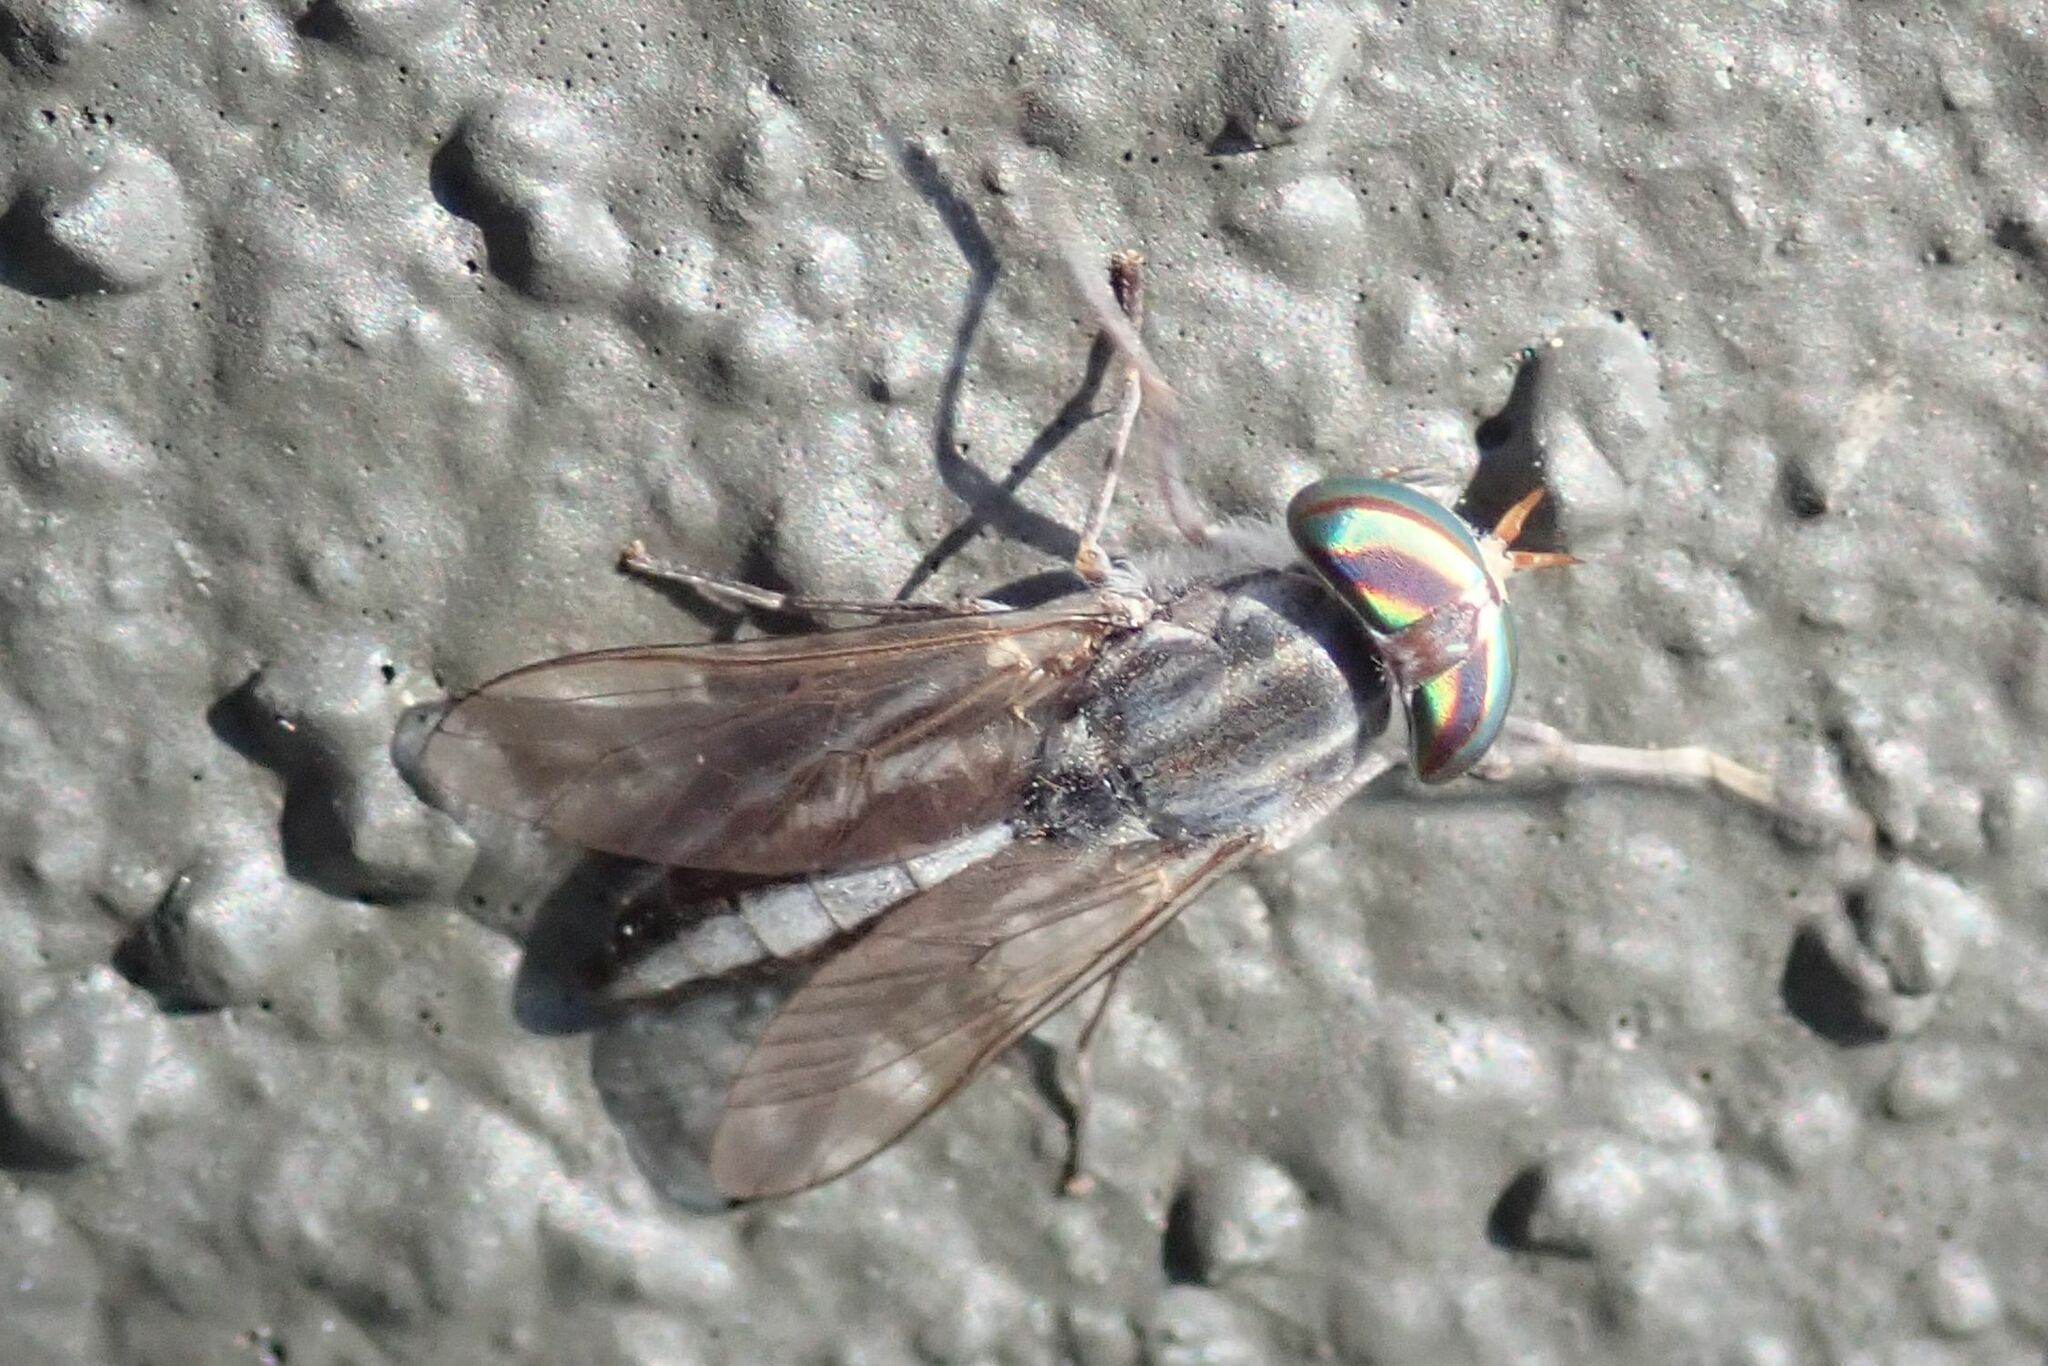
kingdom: Animalia
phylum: Arthropoda
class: Insecta
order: Diptera
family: Tabanidae
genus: Tabanus
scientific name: Tabanus gratus
